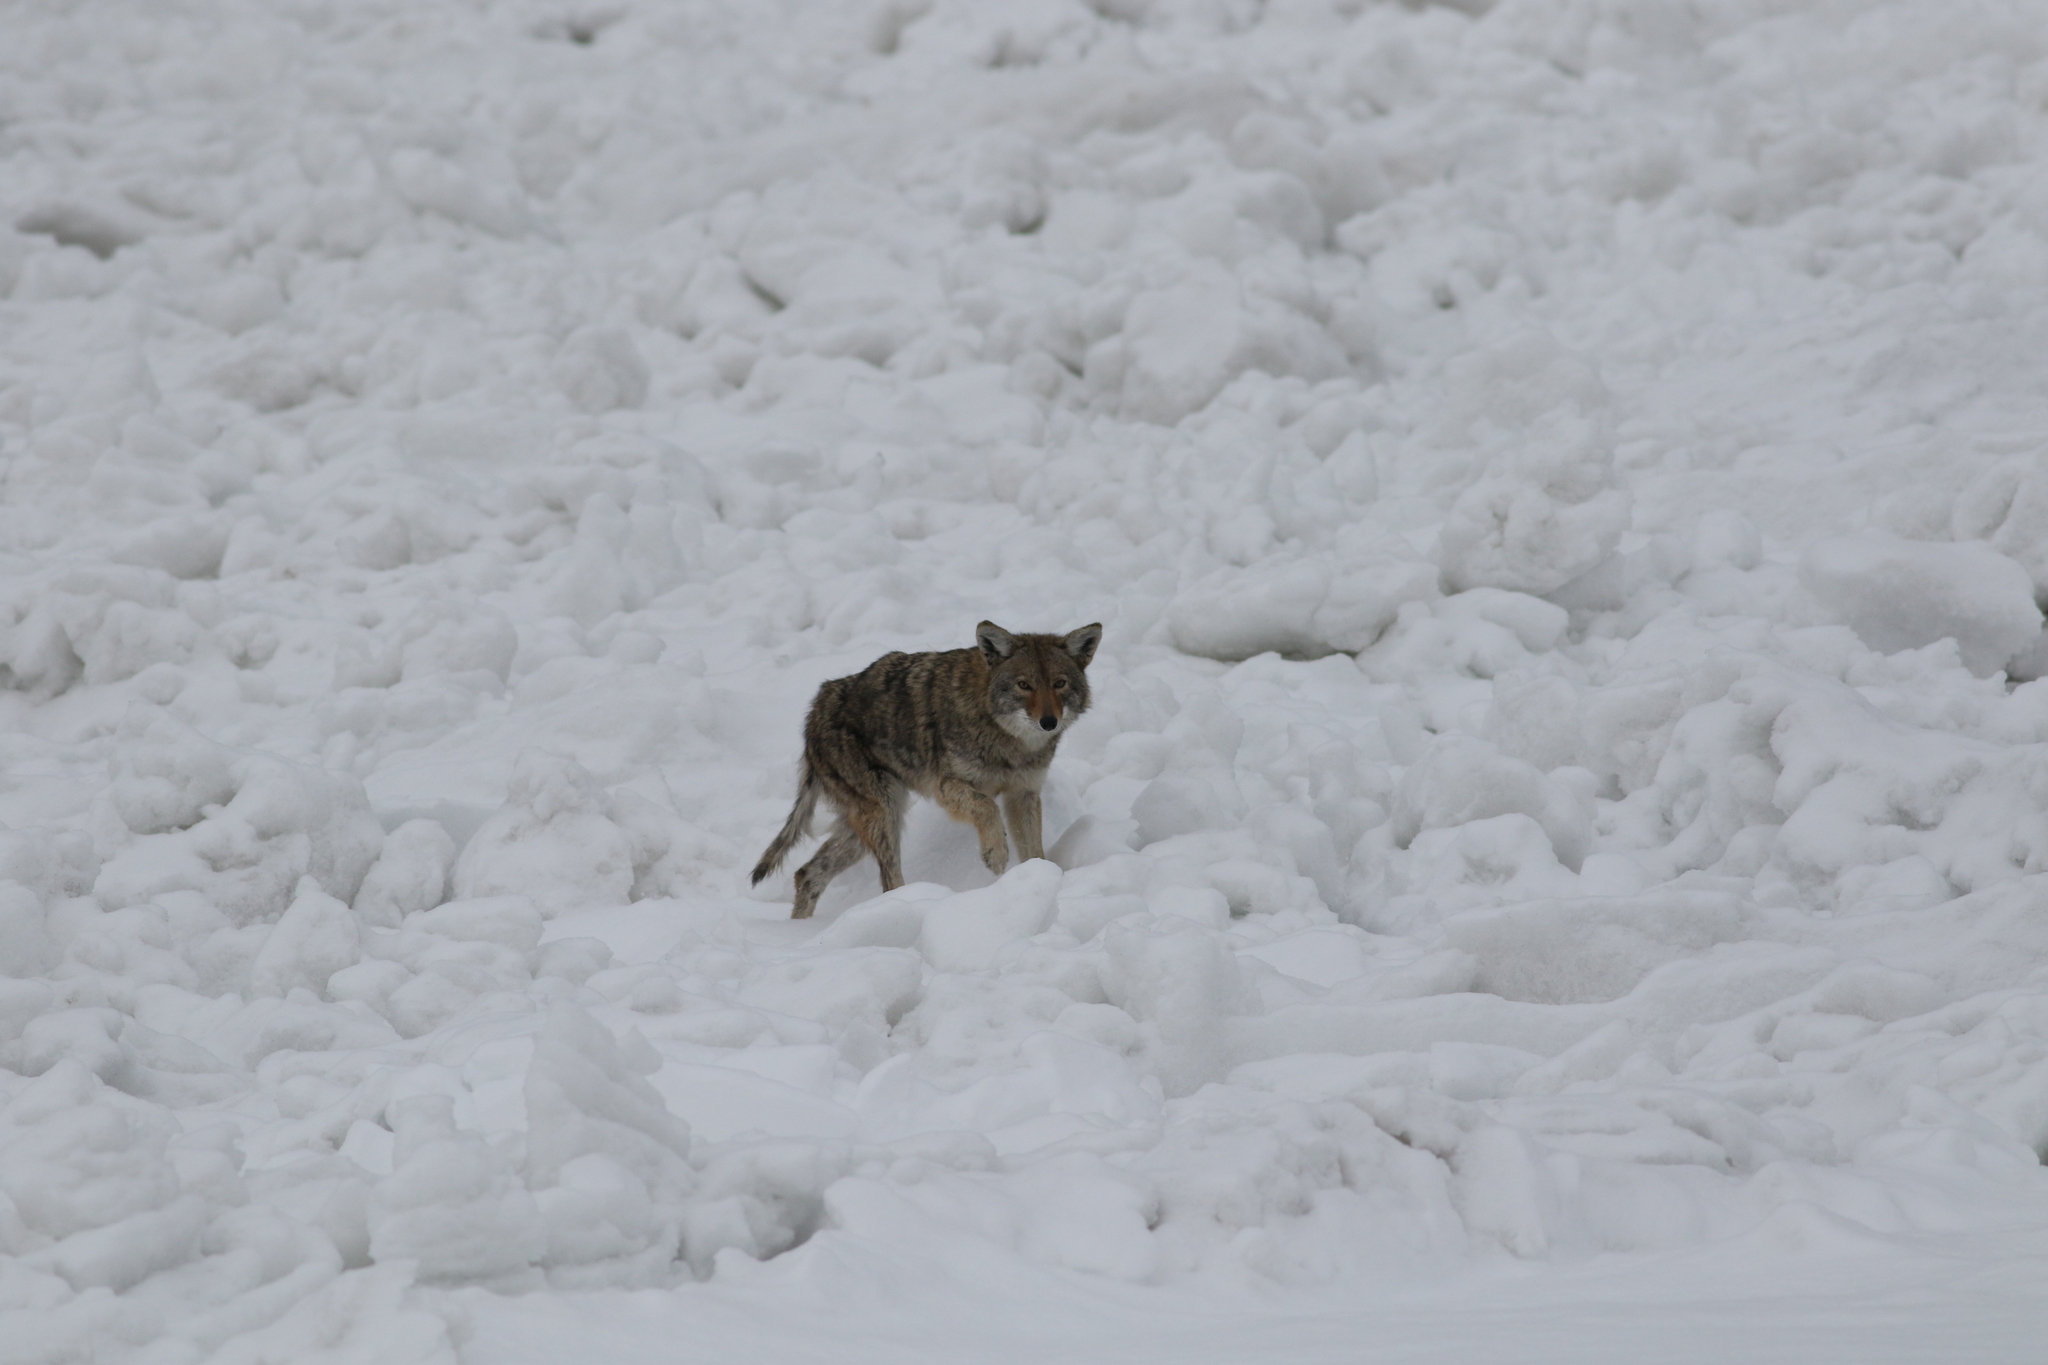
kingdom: Animalia
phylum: Chordata
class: Mammalia
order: Carnivora
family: Canidae
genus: Canis
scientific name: Canis latrans
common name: Coyote
